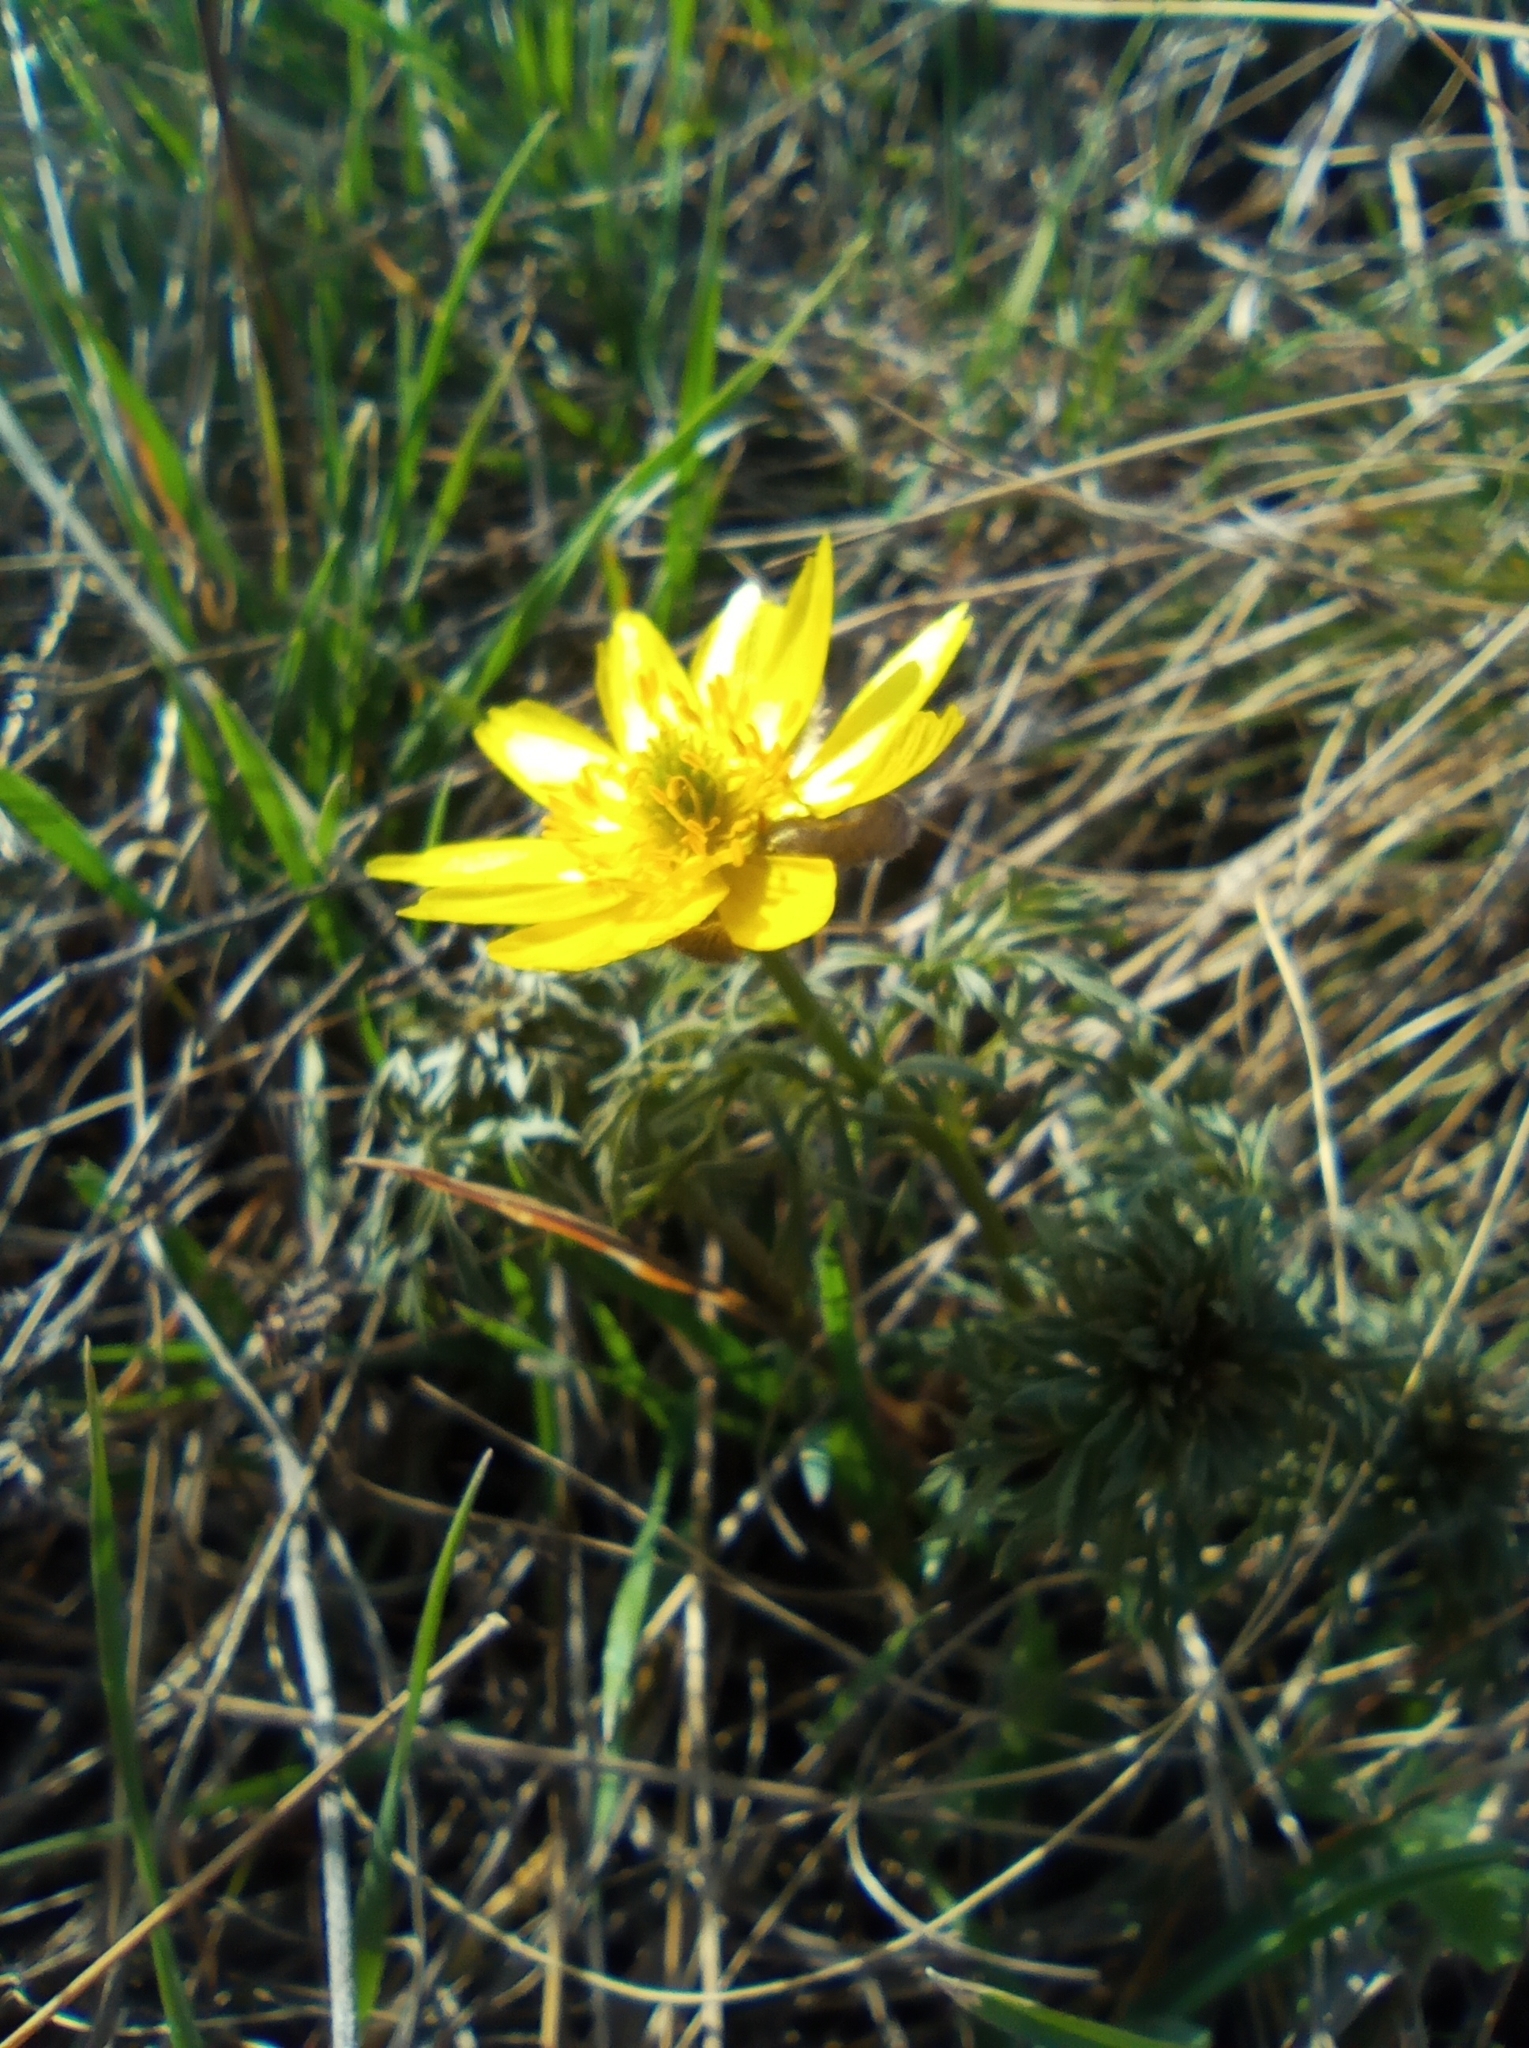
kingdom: Plantae
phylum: Tracheophyta
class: Magnoliopsida
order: Ranunculales
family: Ranunculaceae
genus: Adonis
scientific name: Adonis volgensis
